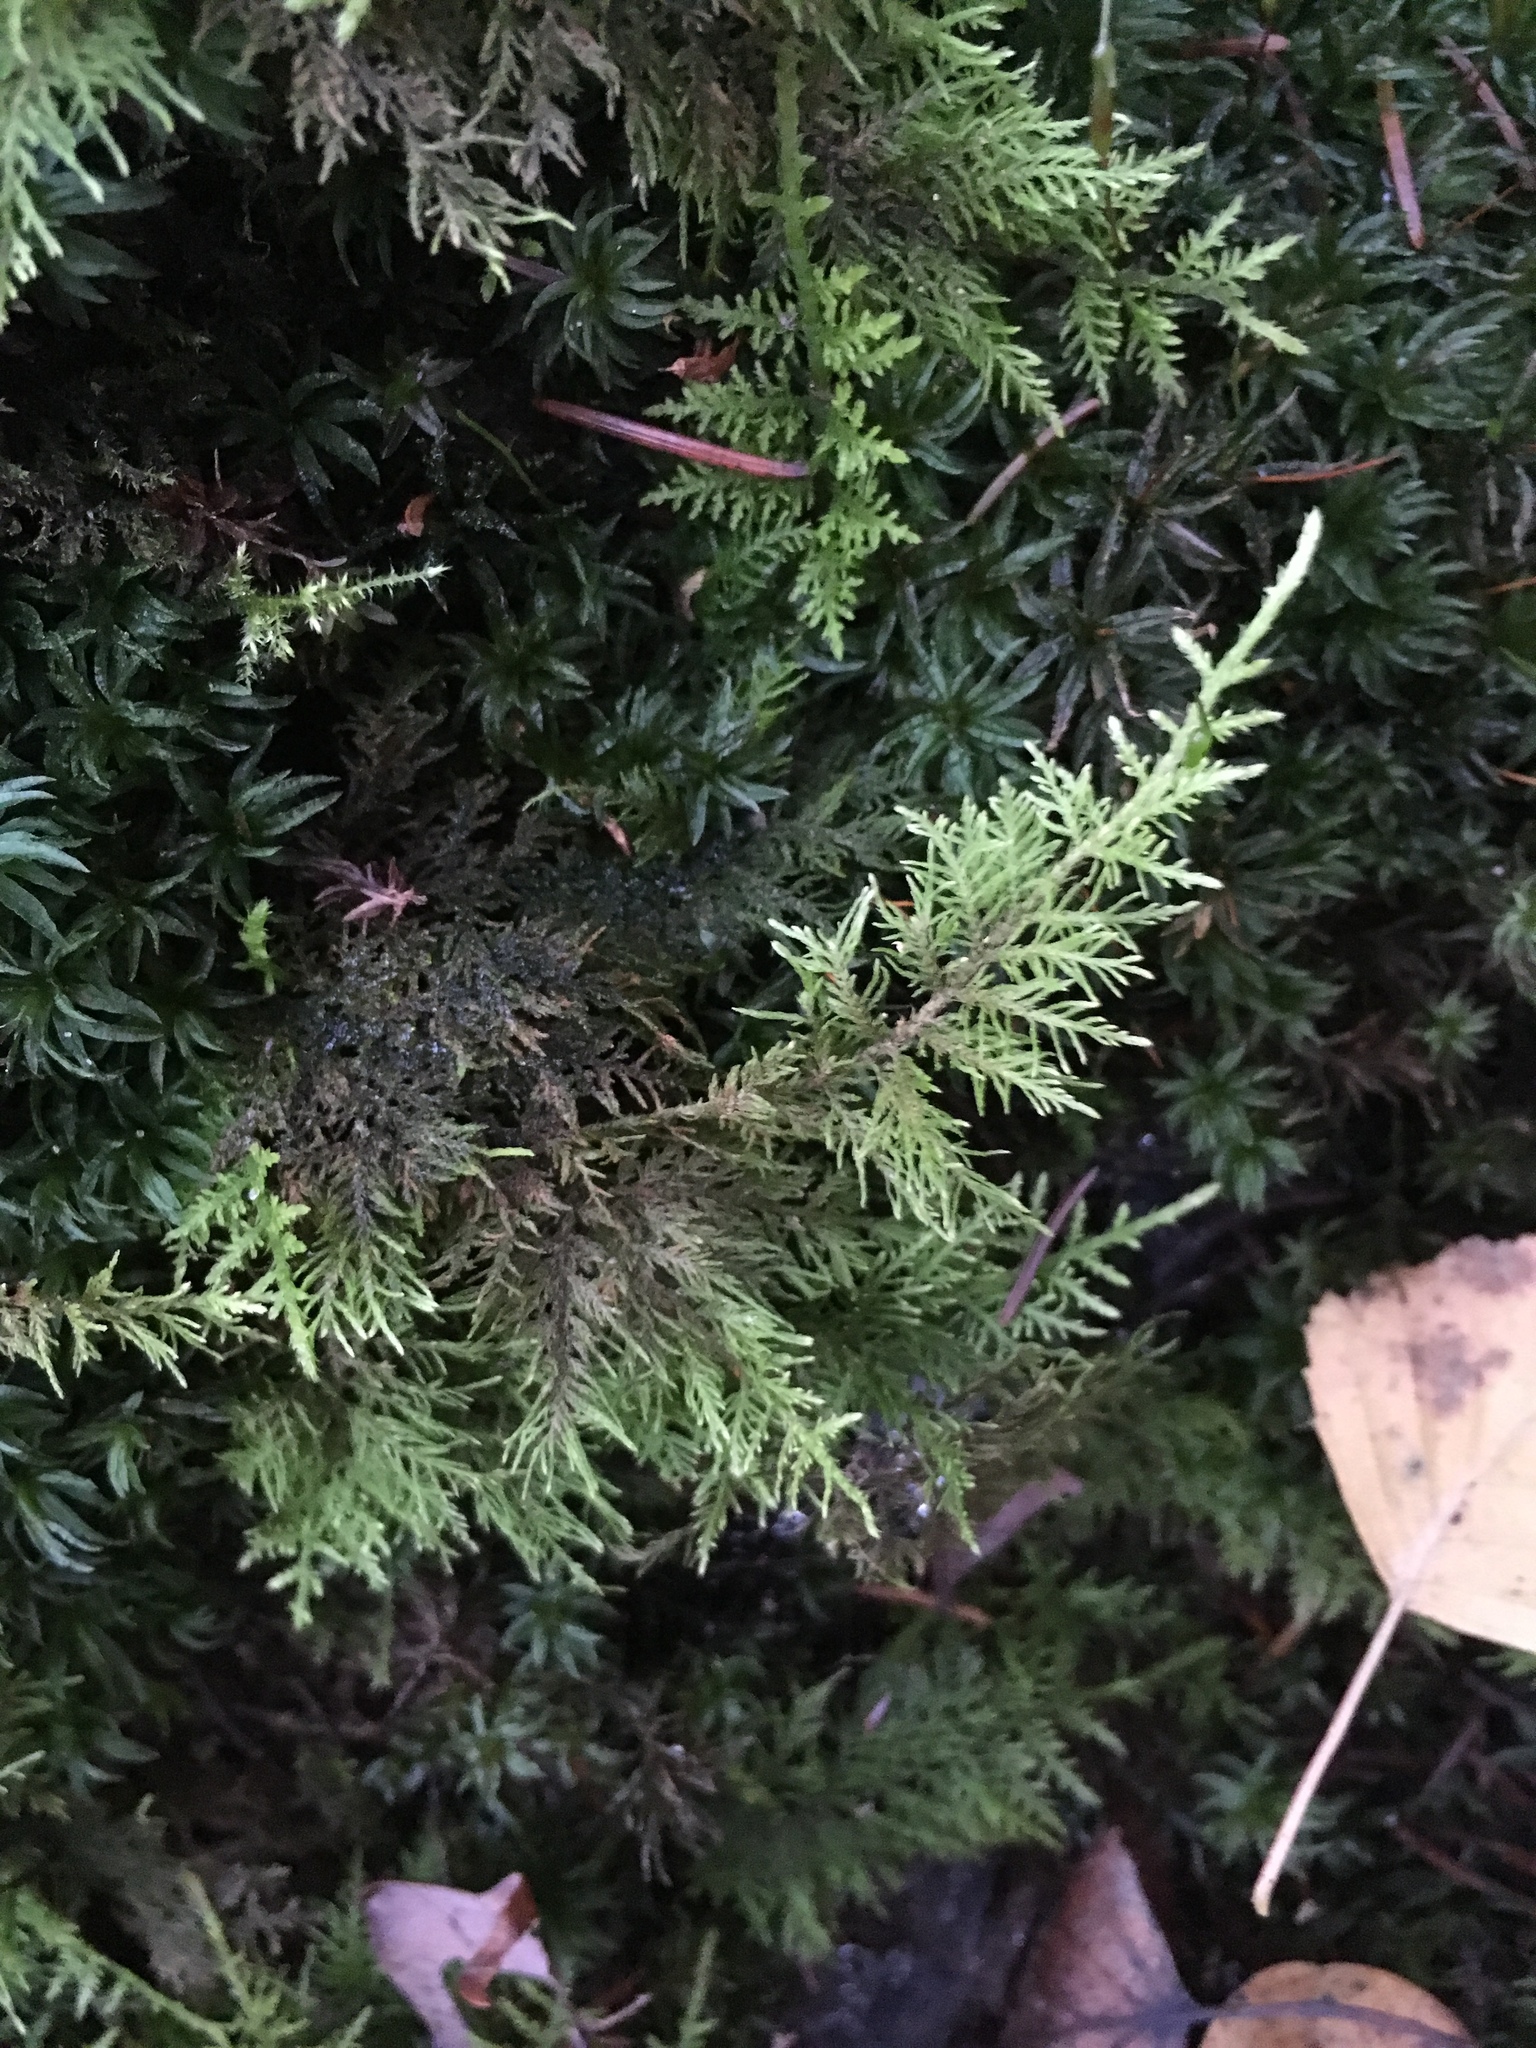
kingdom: Plantae
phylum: Bryophyta
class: Bryopsida
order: Hypnales
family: Hylocomiaceae
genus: Hylocomium
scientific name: Hylocomium splendens
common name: Stairstep moss
